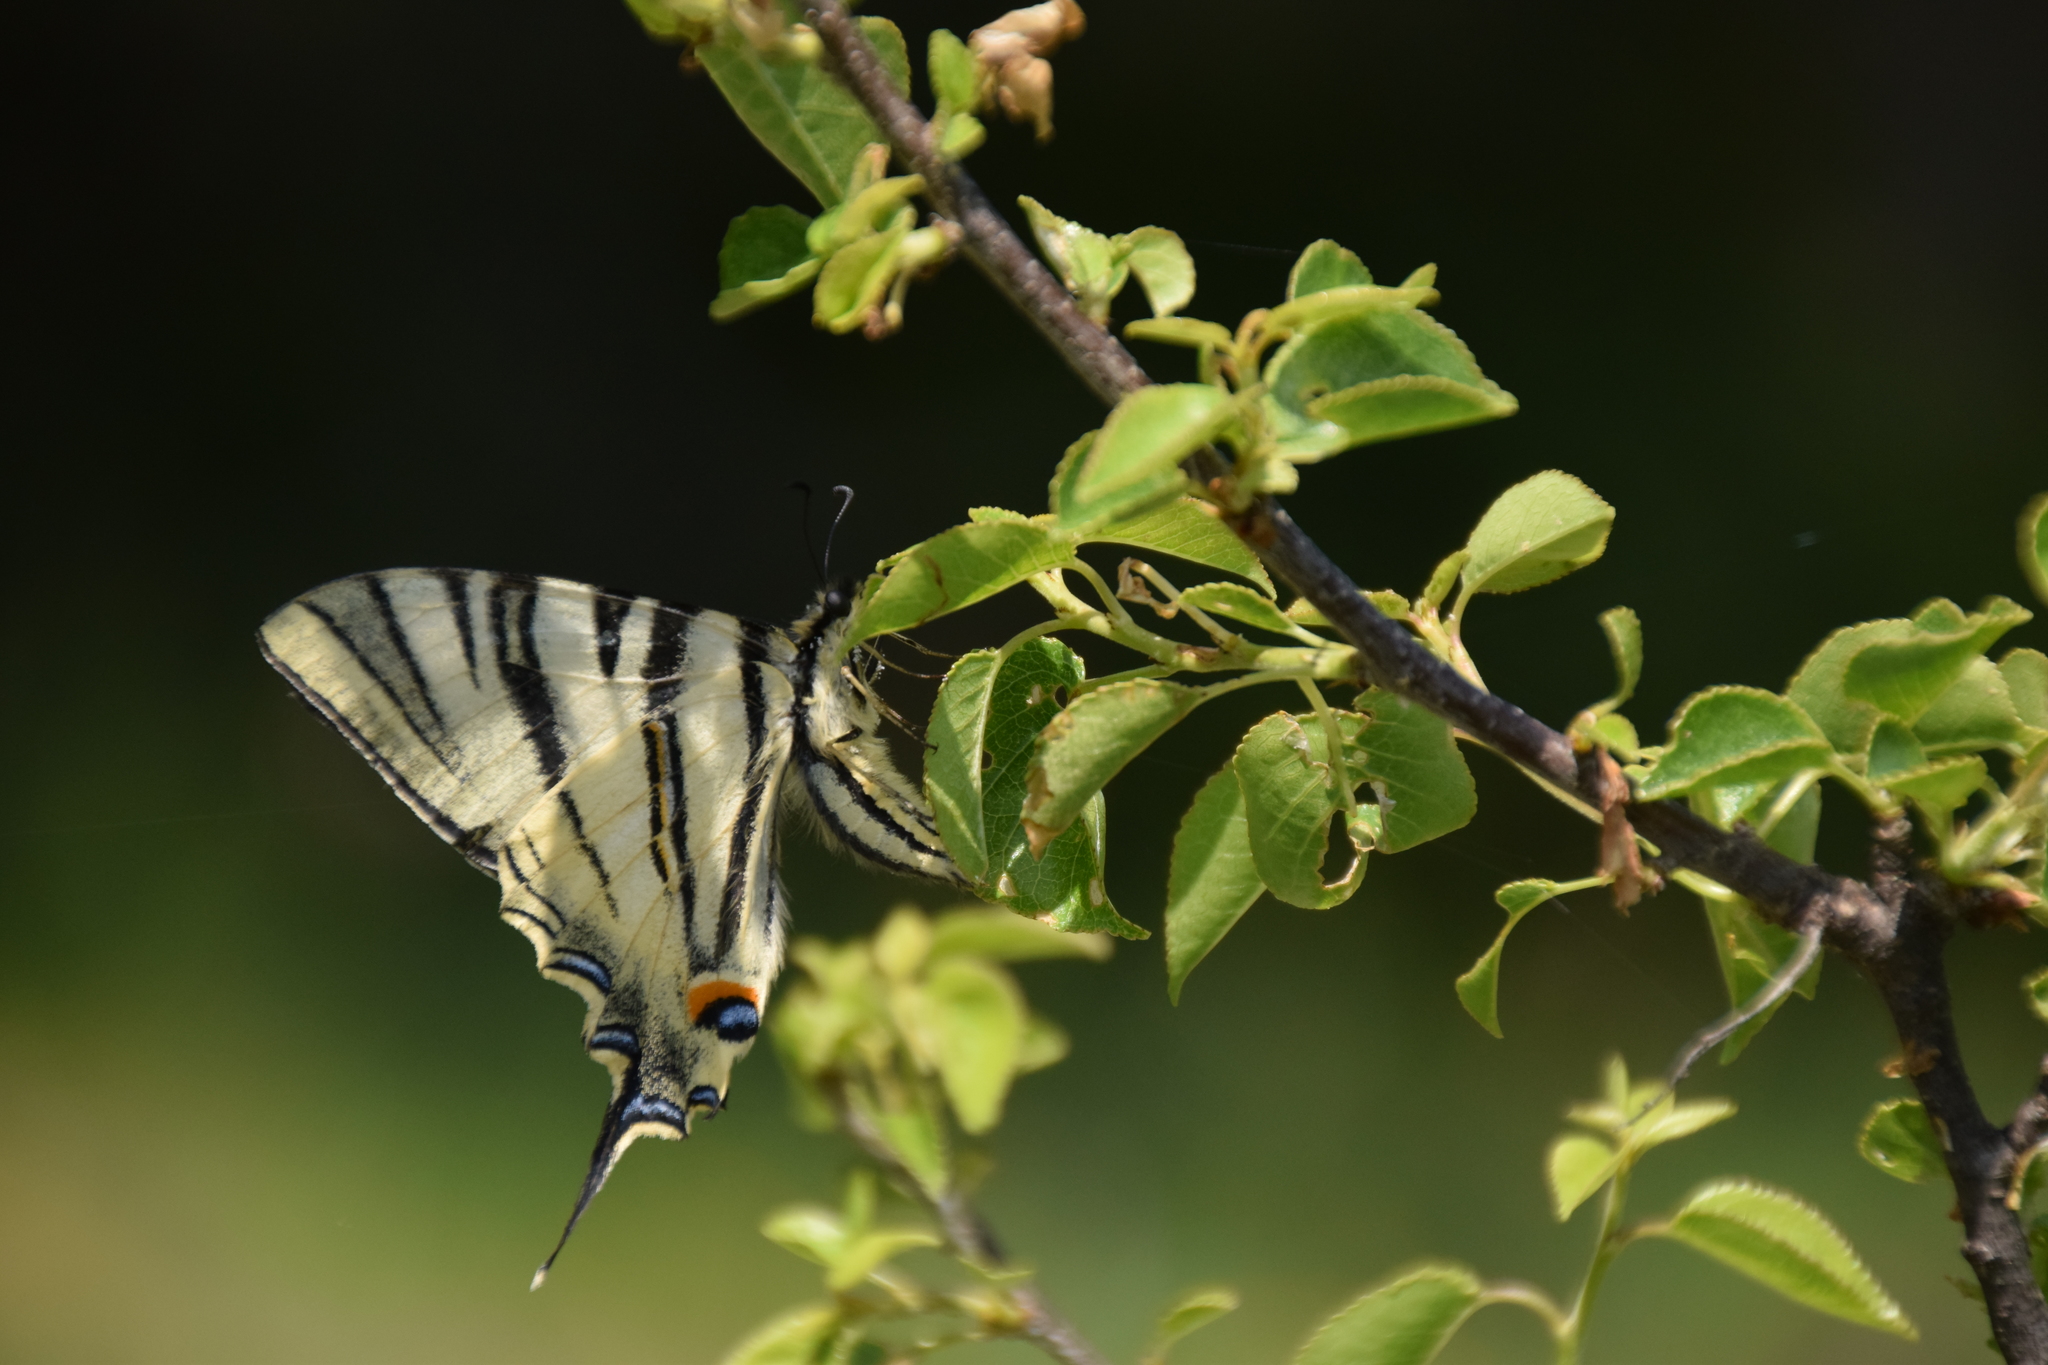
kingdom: Animalia
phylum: Arthropoda
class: Insecta
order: Lepidoptera
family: Papilionidae
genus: Iphiclides
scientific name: Iphiclides podalirius
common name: Scarce swallowtail
